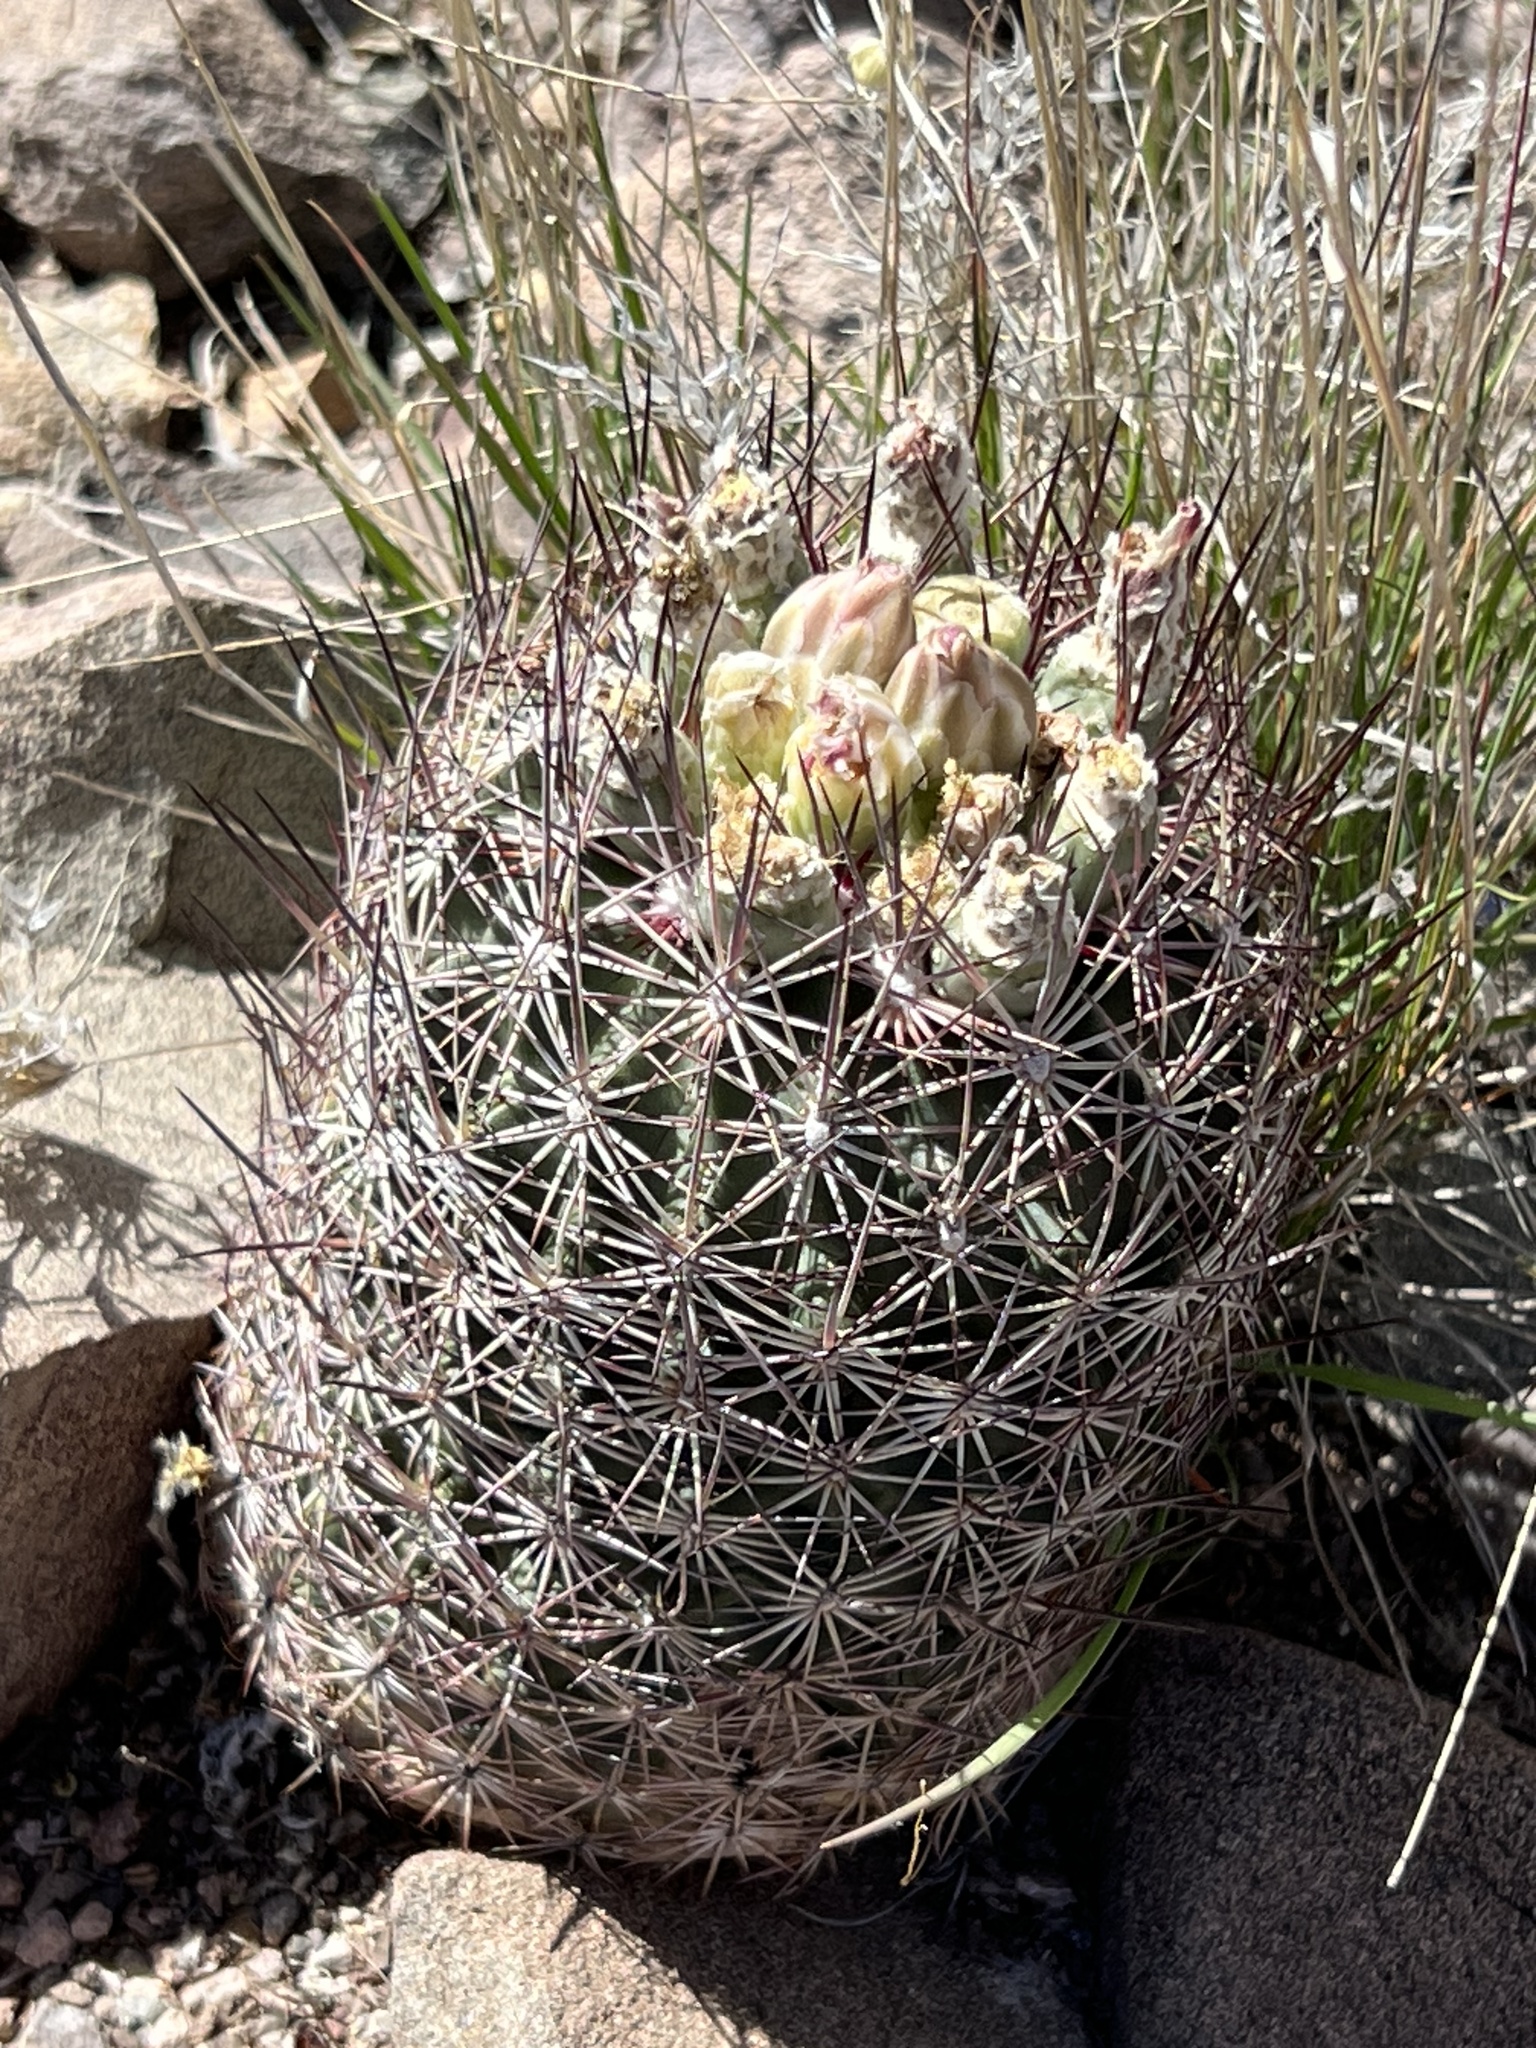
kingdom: Plantae
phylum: Tracheophyta
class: Magnoliopsida
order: Caryophyllales
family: Cactaceae
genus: Sclerocactus
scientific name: Sclerocactus johnsonii
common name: Eight-spine fishhook cactus
